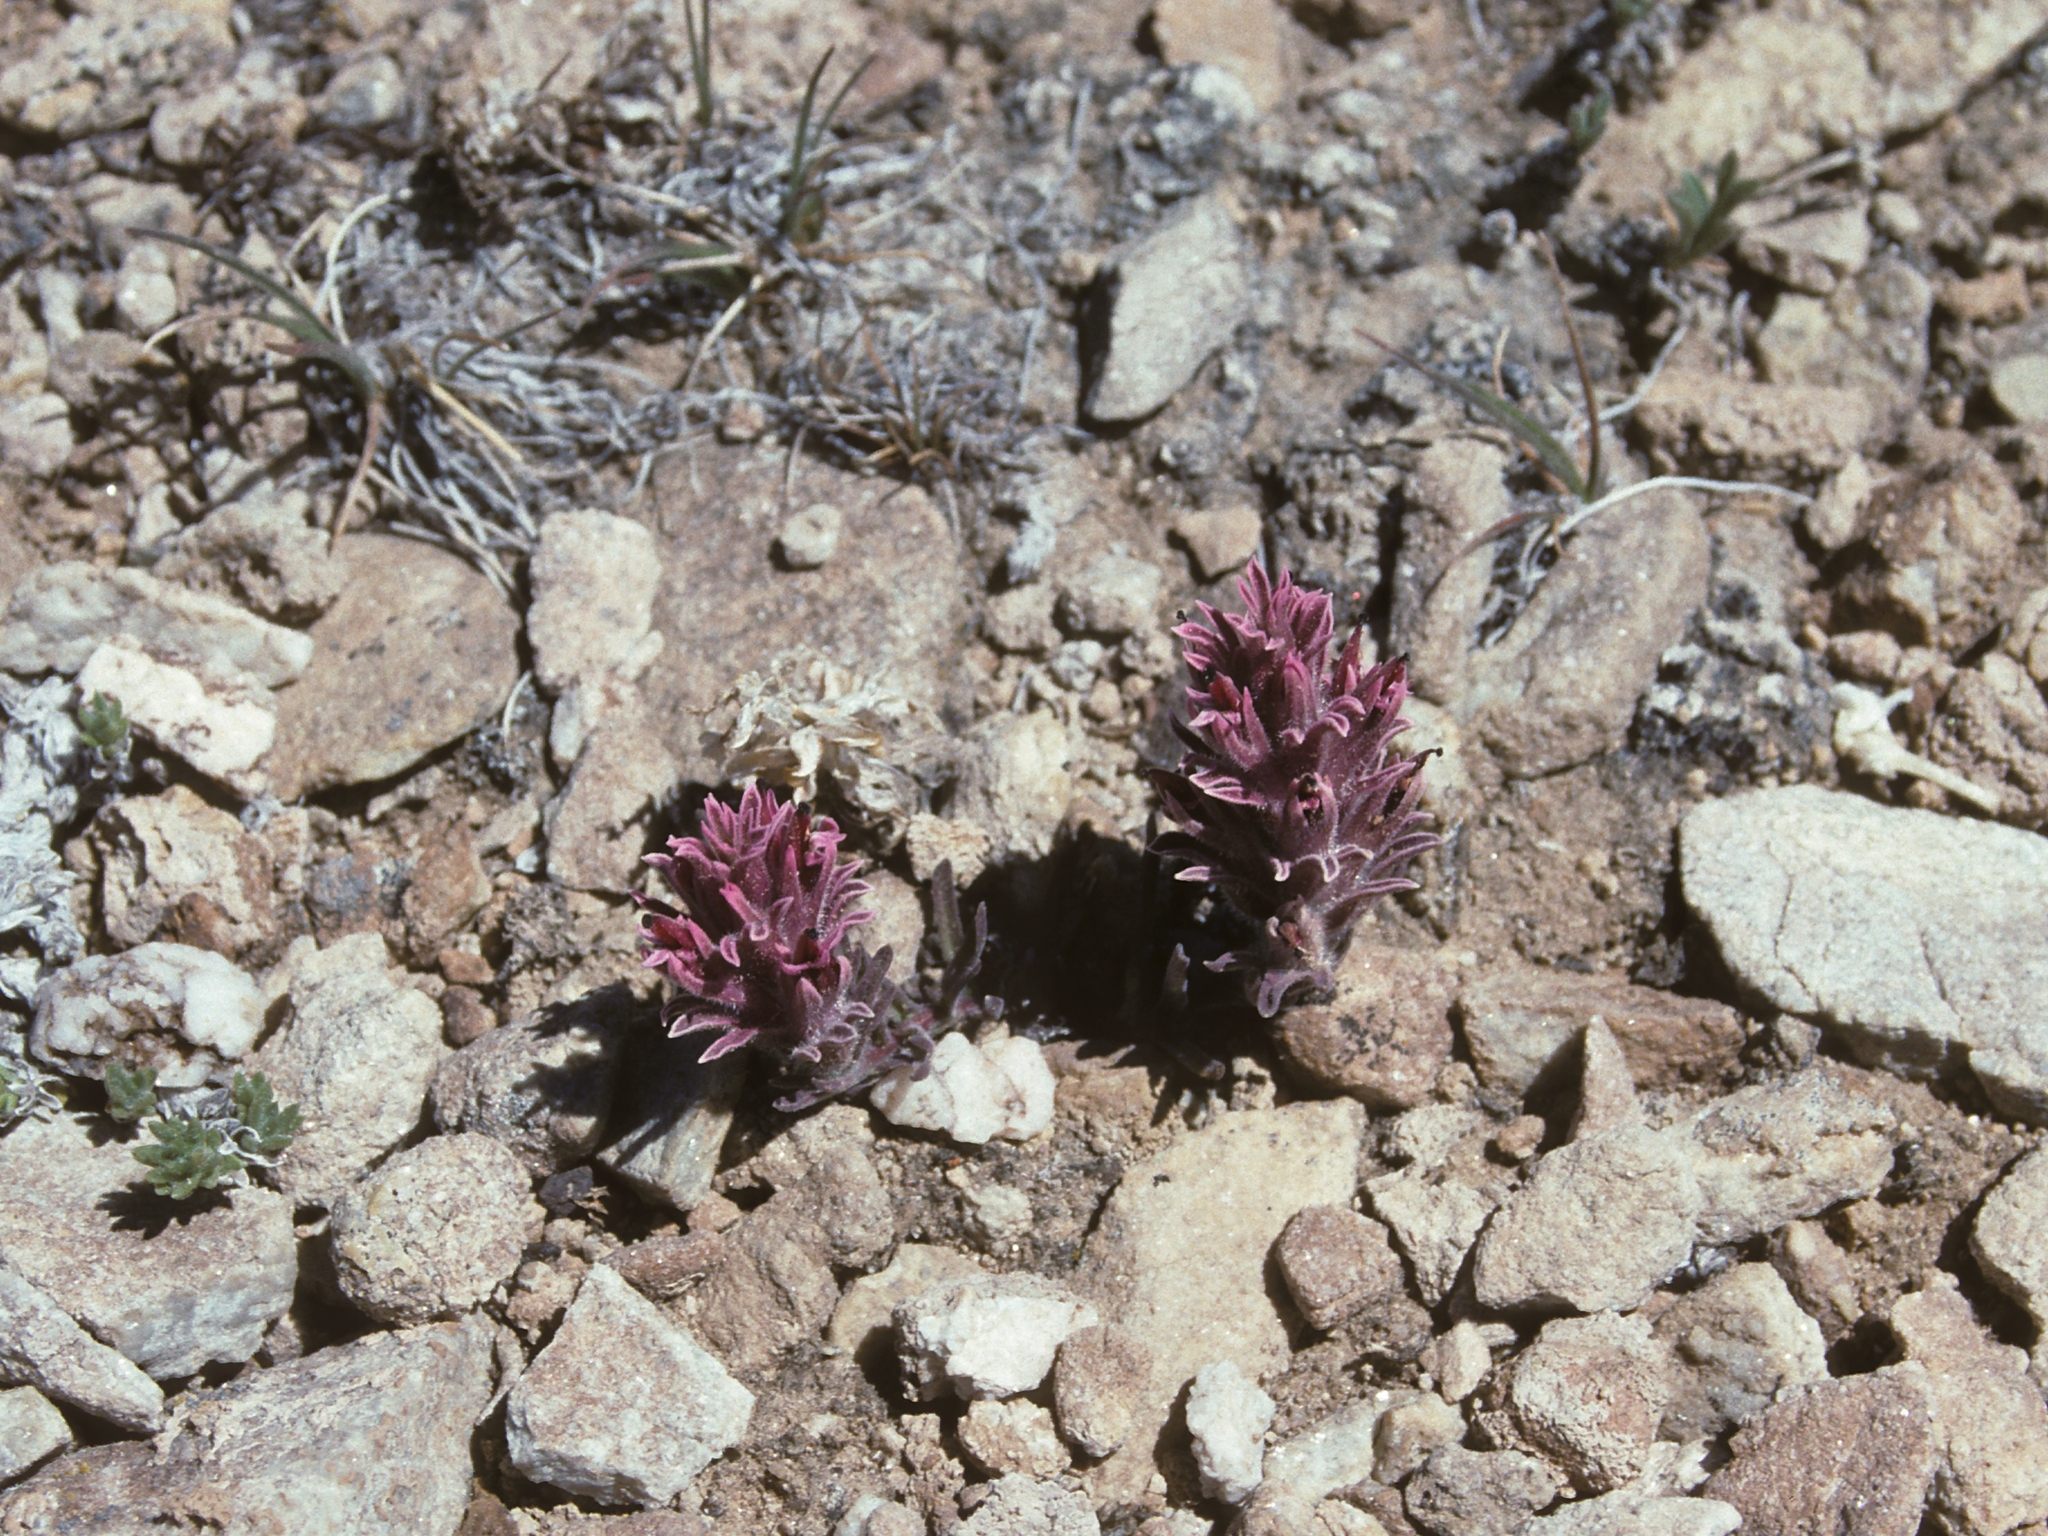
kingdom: Plantae
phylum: Tracheophyta
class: Magnoliopsida
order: Lamiales
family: Orobanchaceae
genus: Castilleja
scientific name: Castilleja nana
